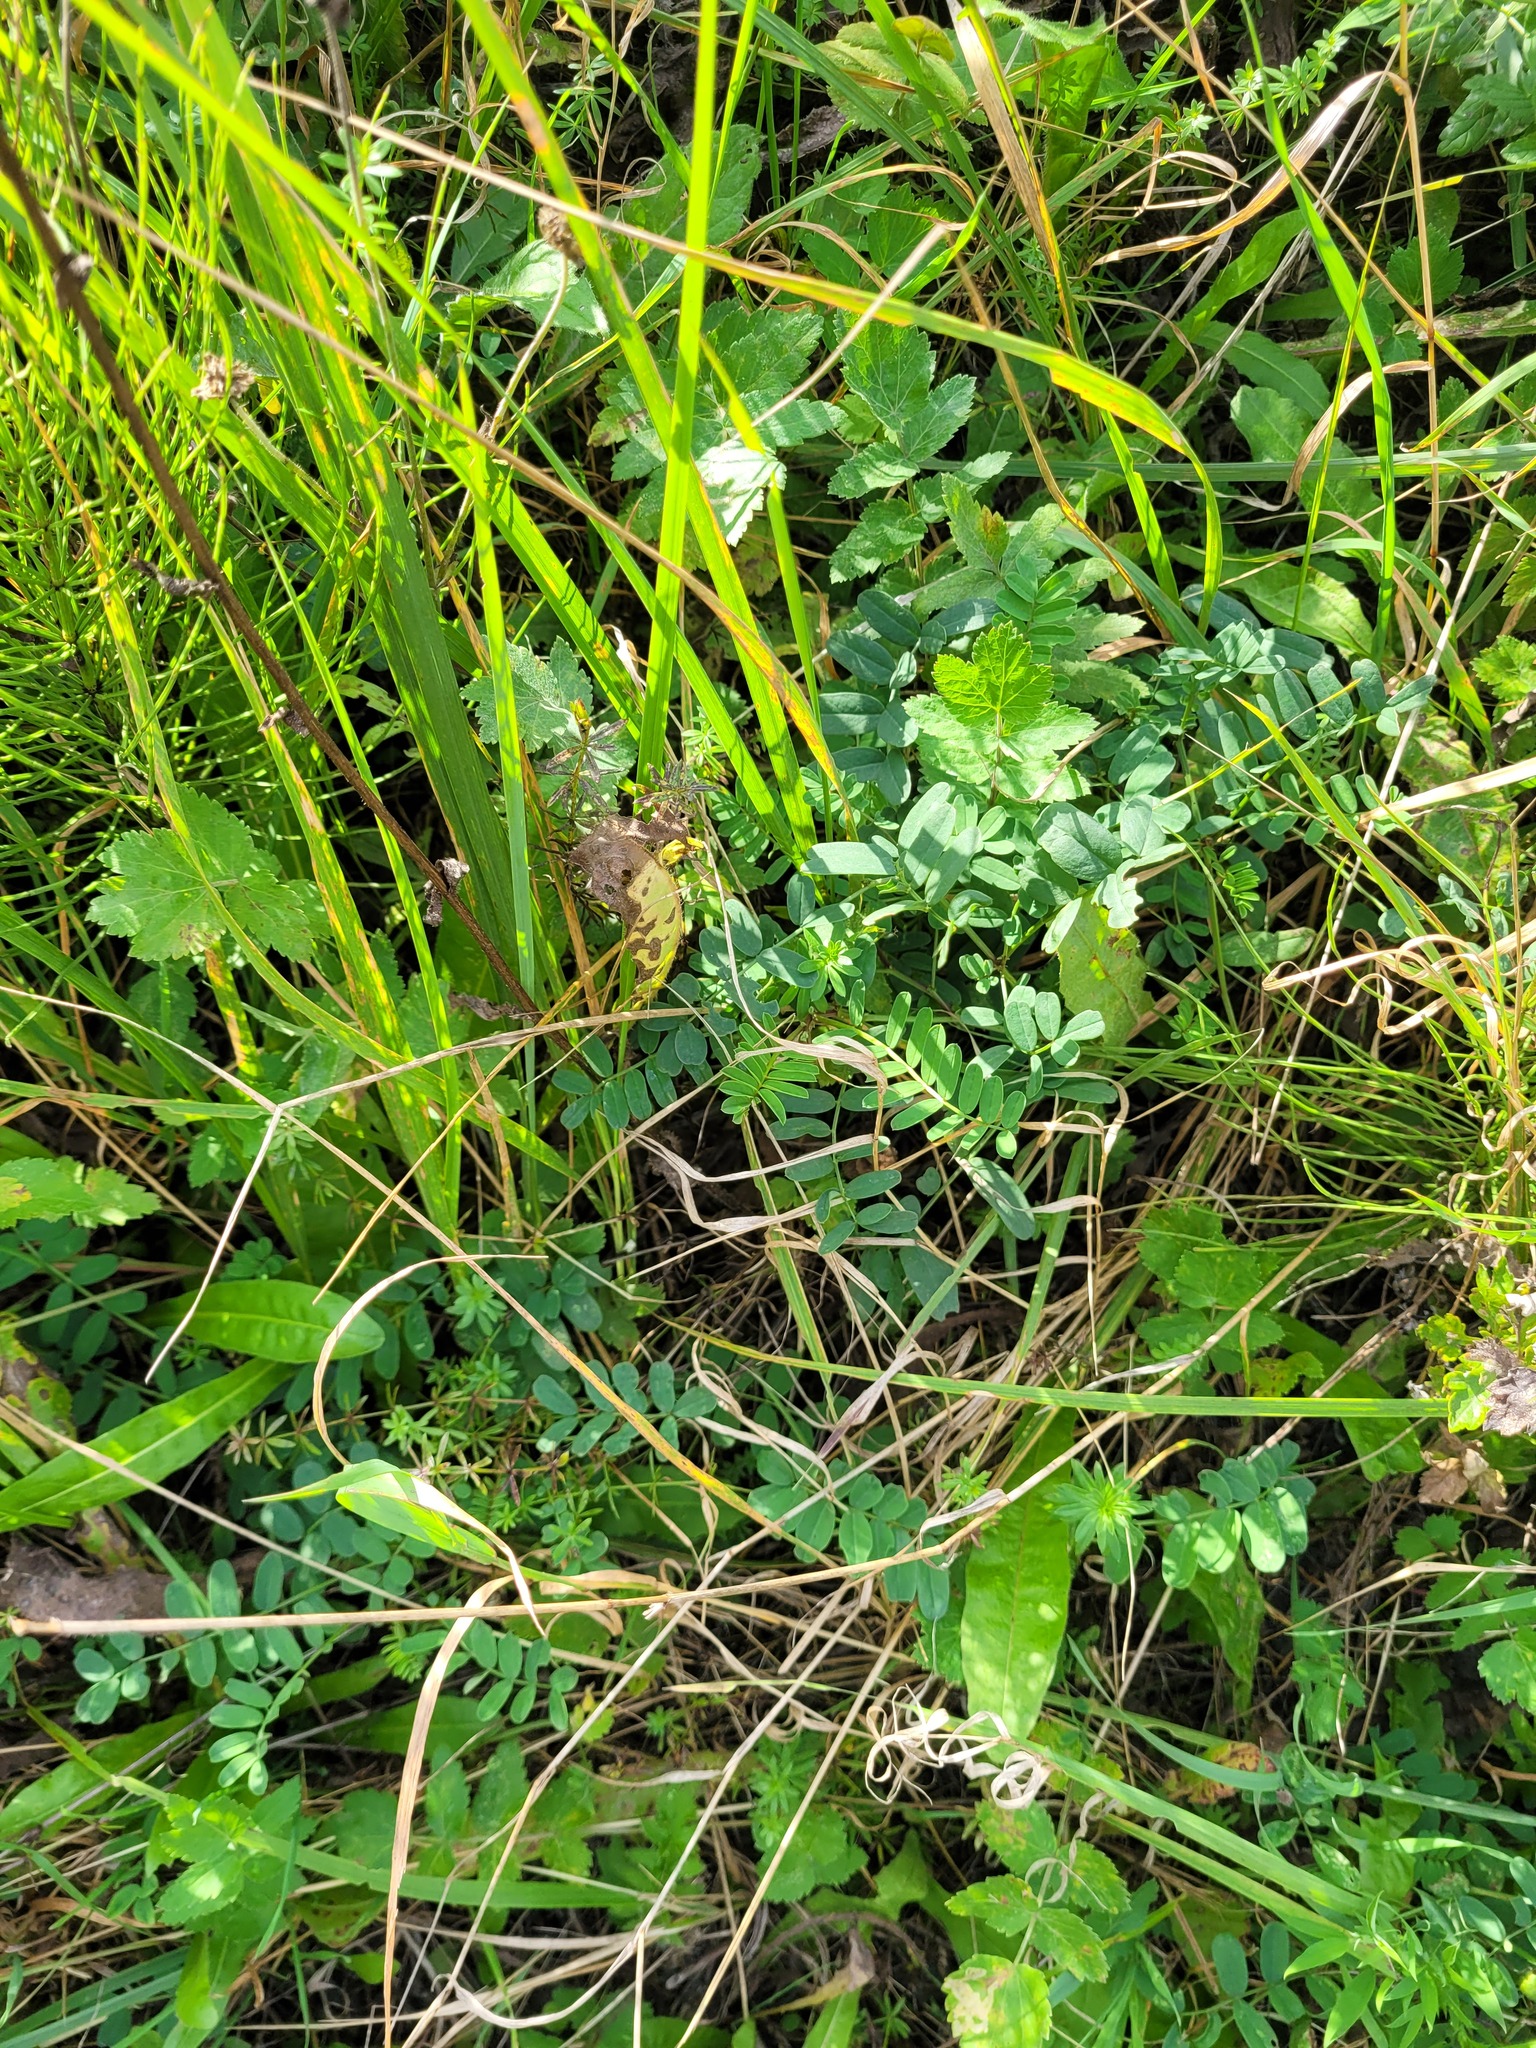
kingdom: Plantae
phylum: Tracheophyta
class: Magnoliopsida
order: Fabales
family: Fabaceae
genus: Coronilla
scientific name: Coronilla varia
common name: Crownvetch
